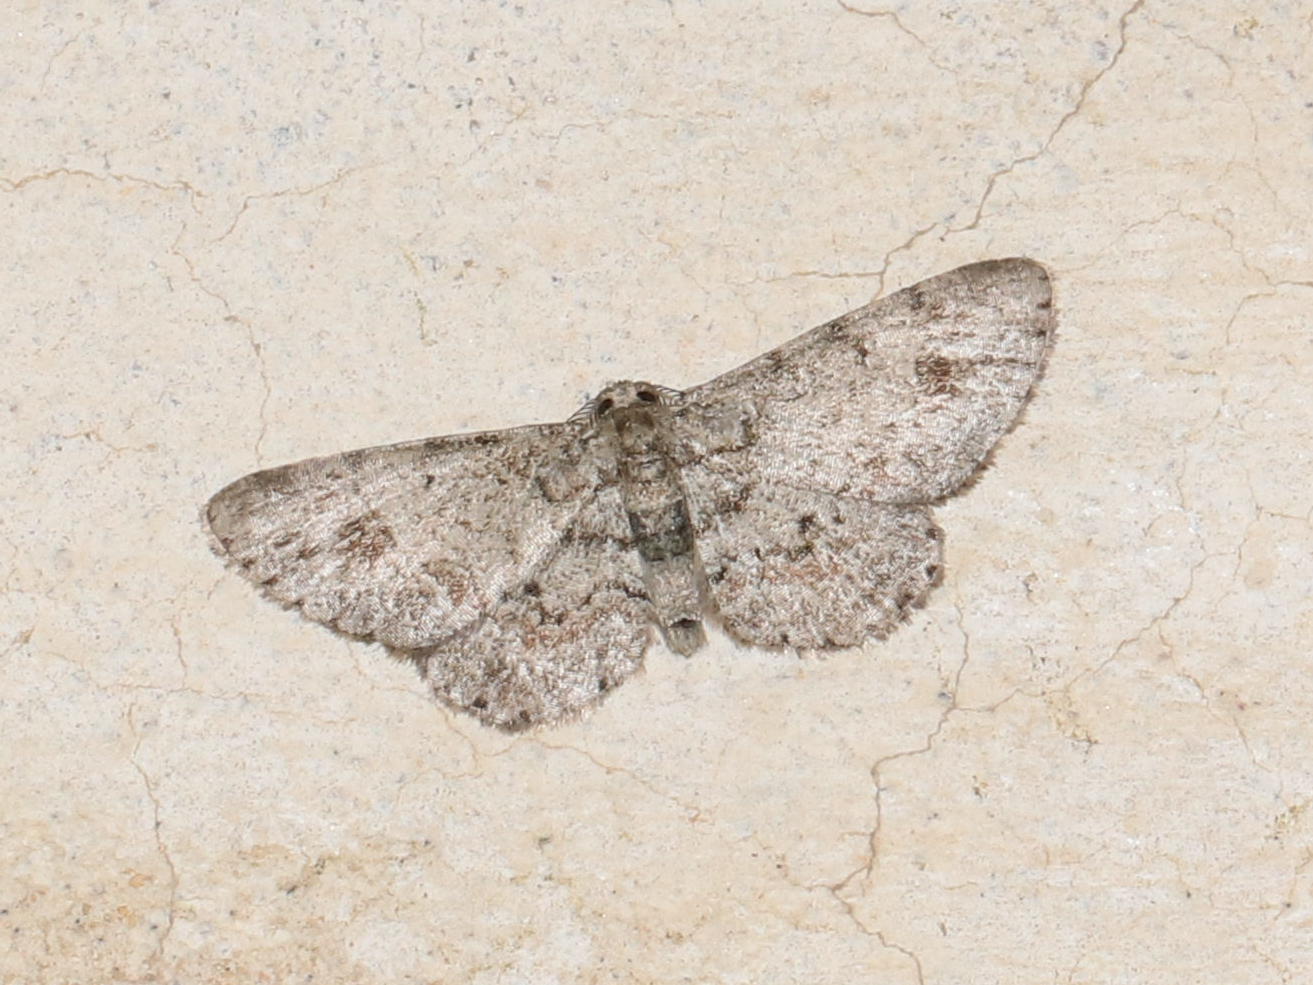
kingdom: Animalia
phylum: Arthropoda
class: Insecta
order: Lepidoptera
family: Geometridae
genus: Glenoides
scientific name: Glenoides texanaria
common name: Texas gray
